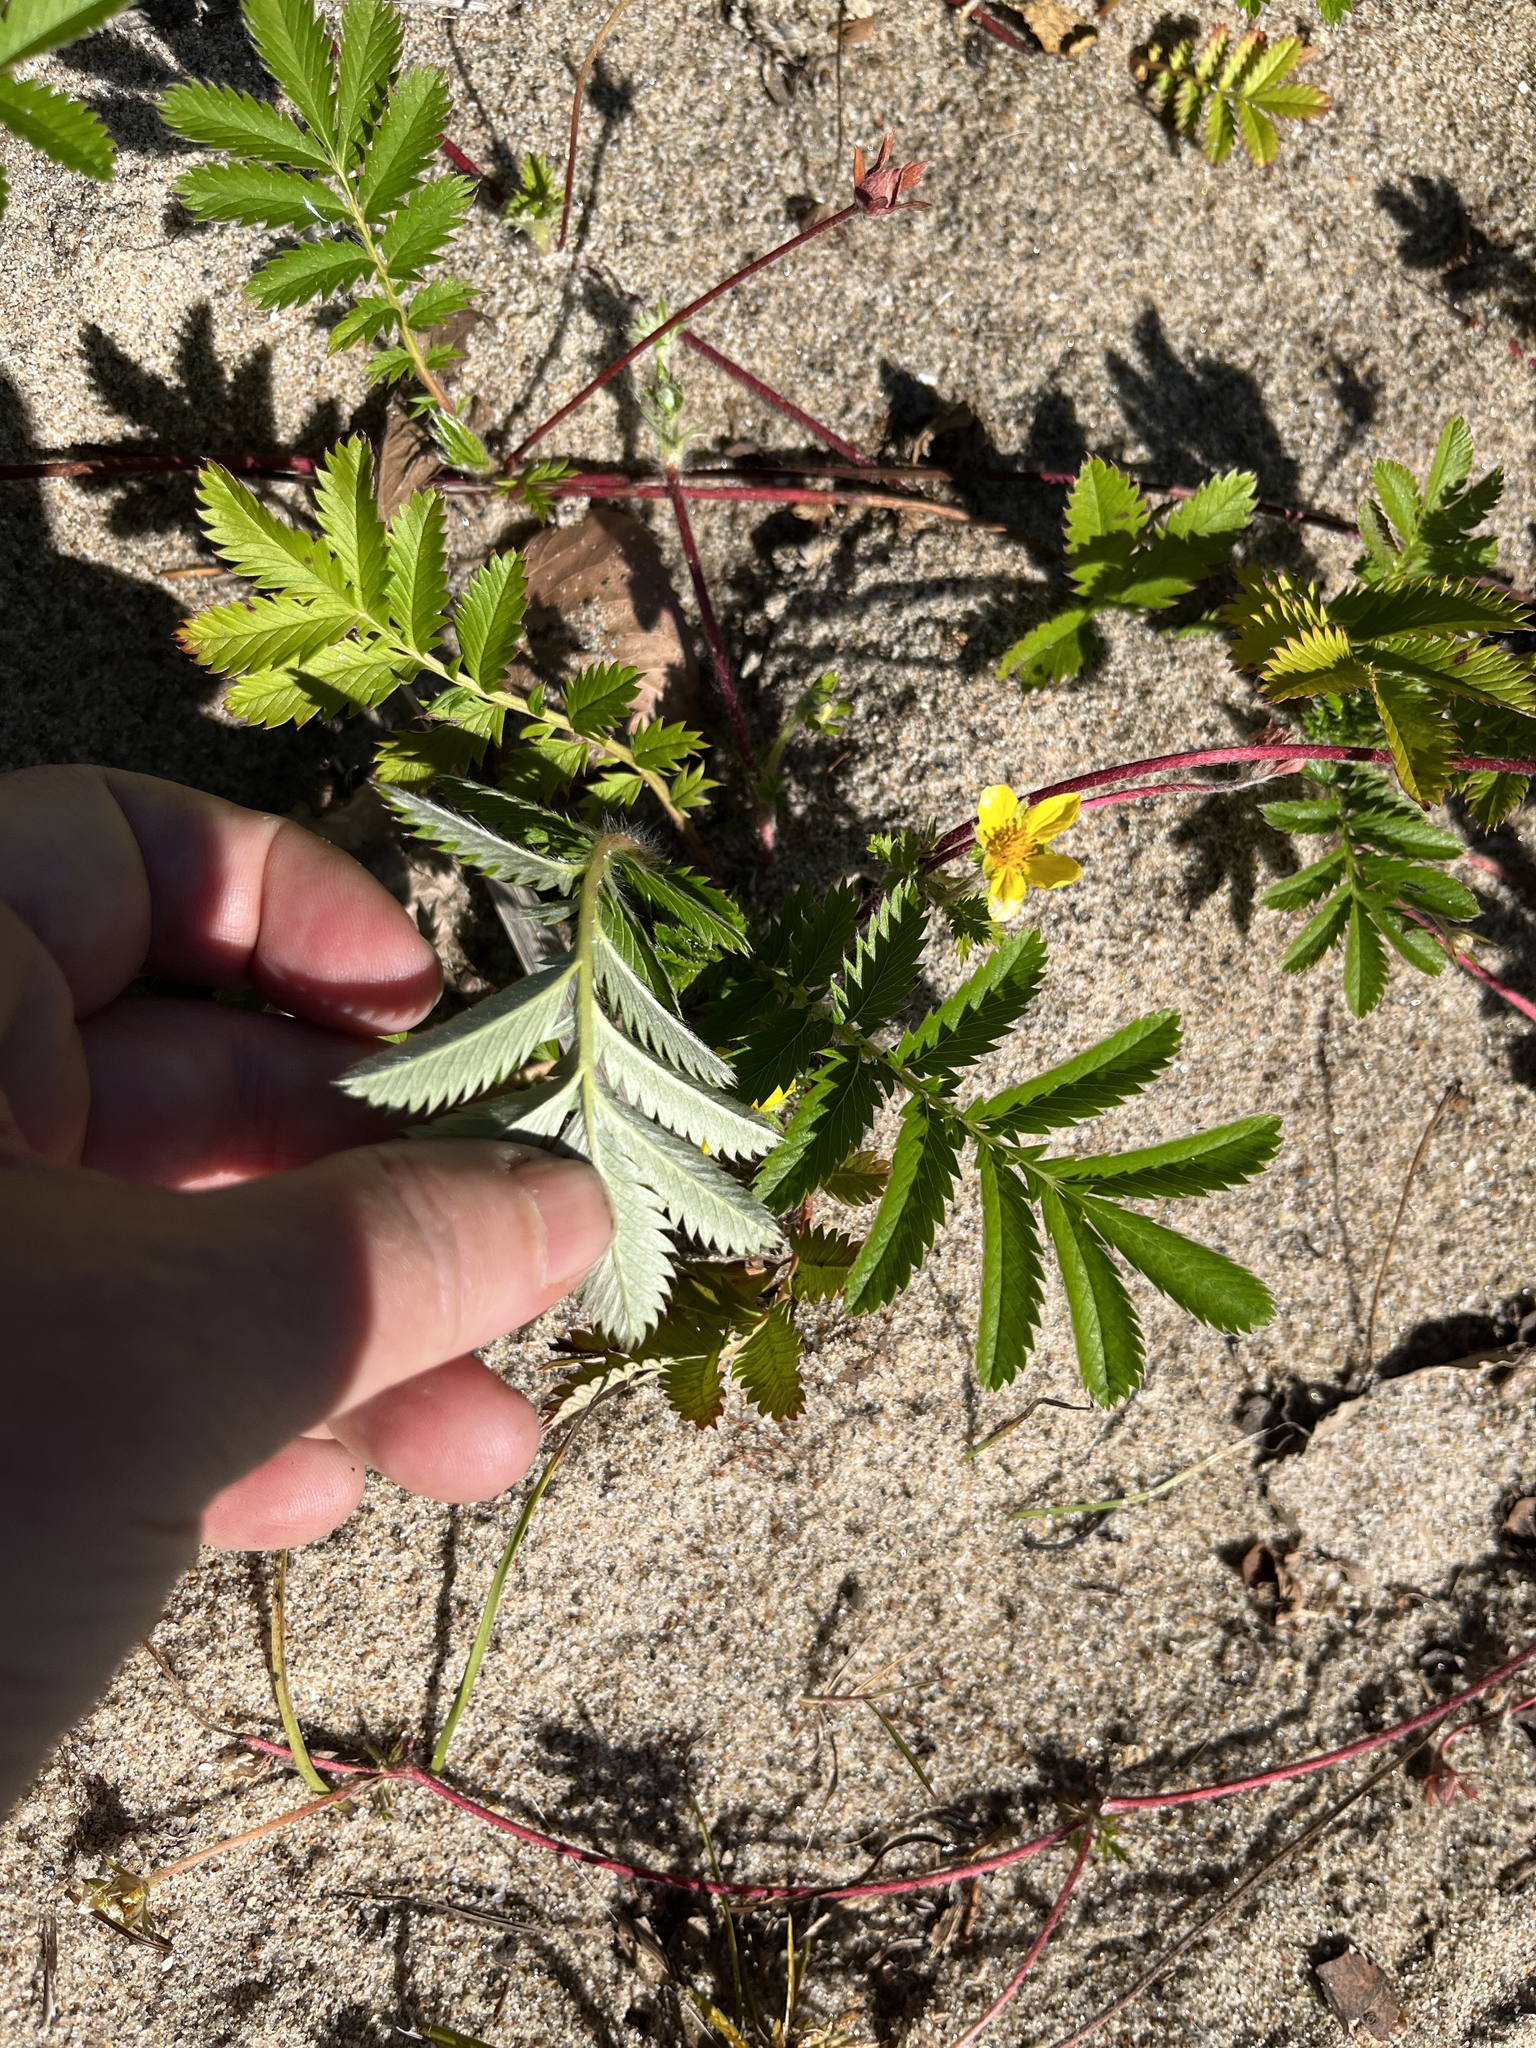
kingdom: Plantae
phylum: Tracheophyta
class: Magnoliopsida
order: Rosales
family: Rosaceae
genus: Argentina
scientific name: Argentina anserina
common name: Common silverweed
